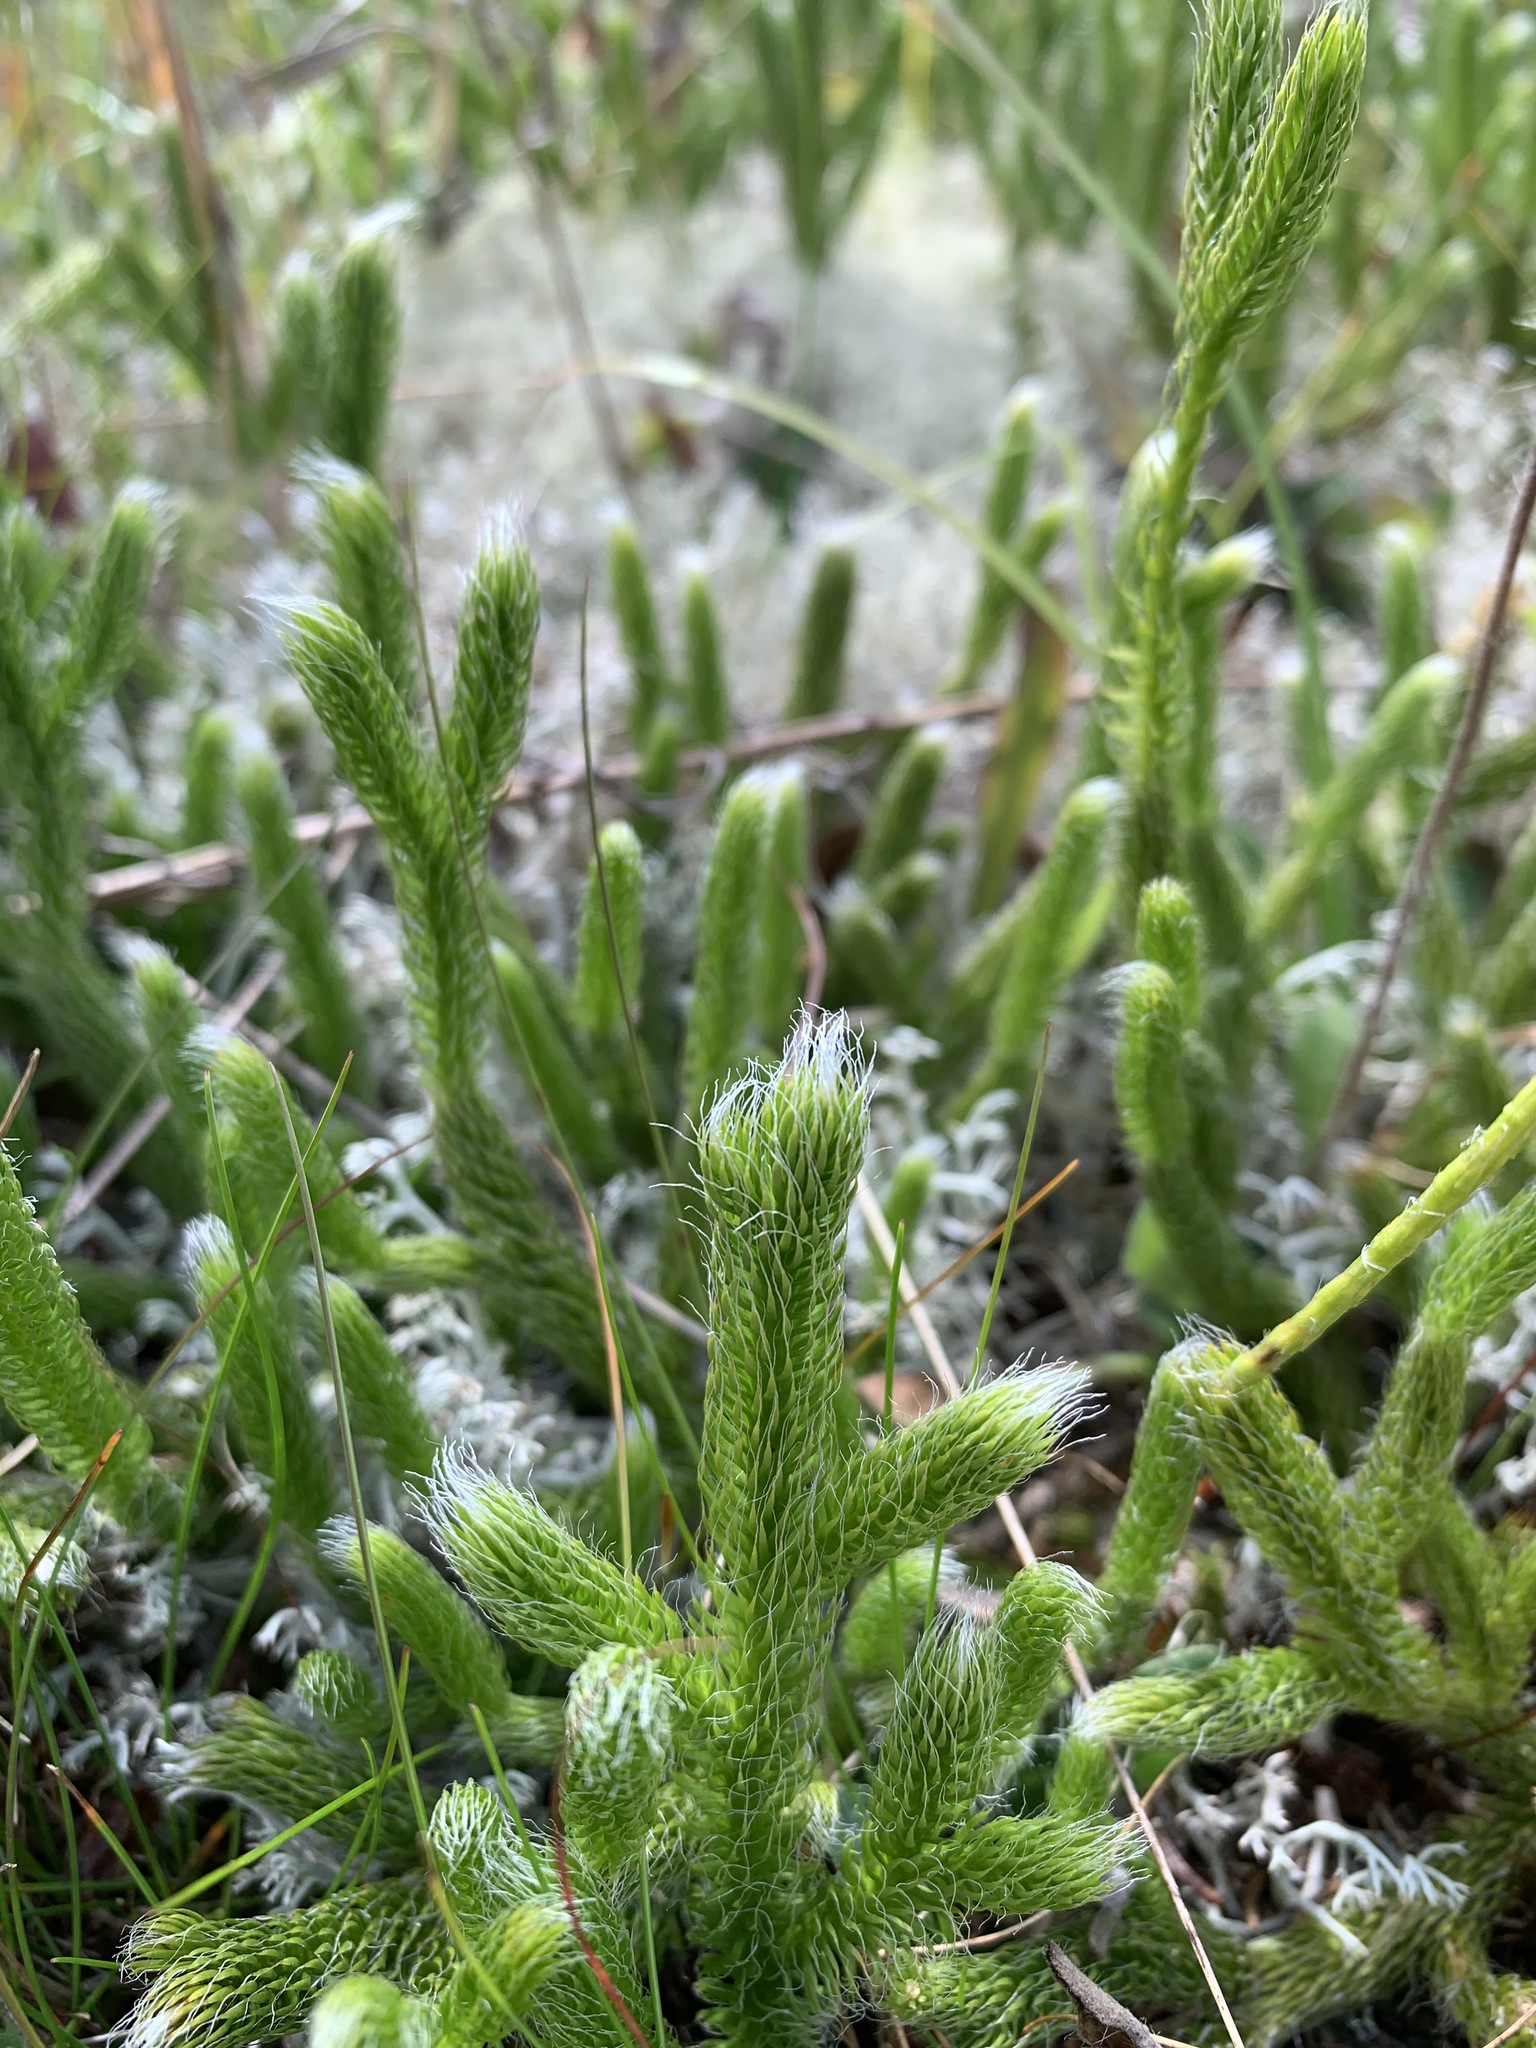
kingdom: Plantae
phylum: Tracheophyta
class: Lycopodiopsida
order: Lycopodiales
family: Lycopodiaceae
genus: Lycopodium
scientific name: Lycopodium lagopus
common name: One-cone clubmoss
